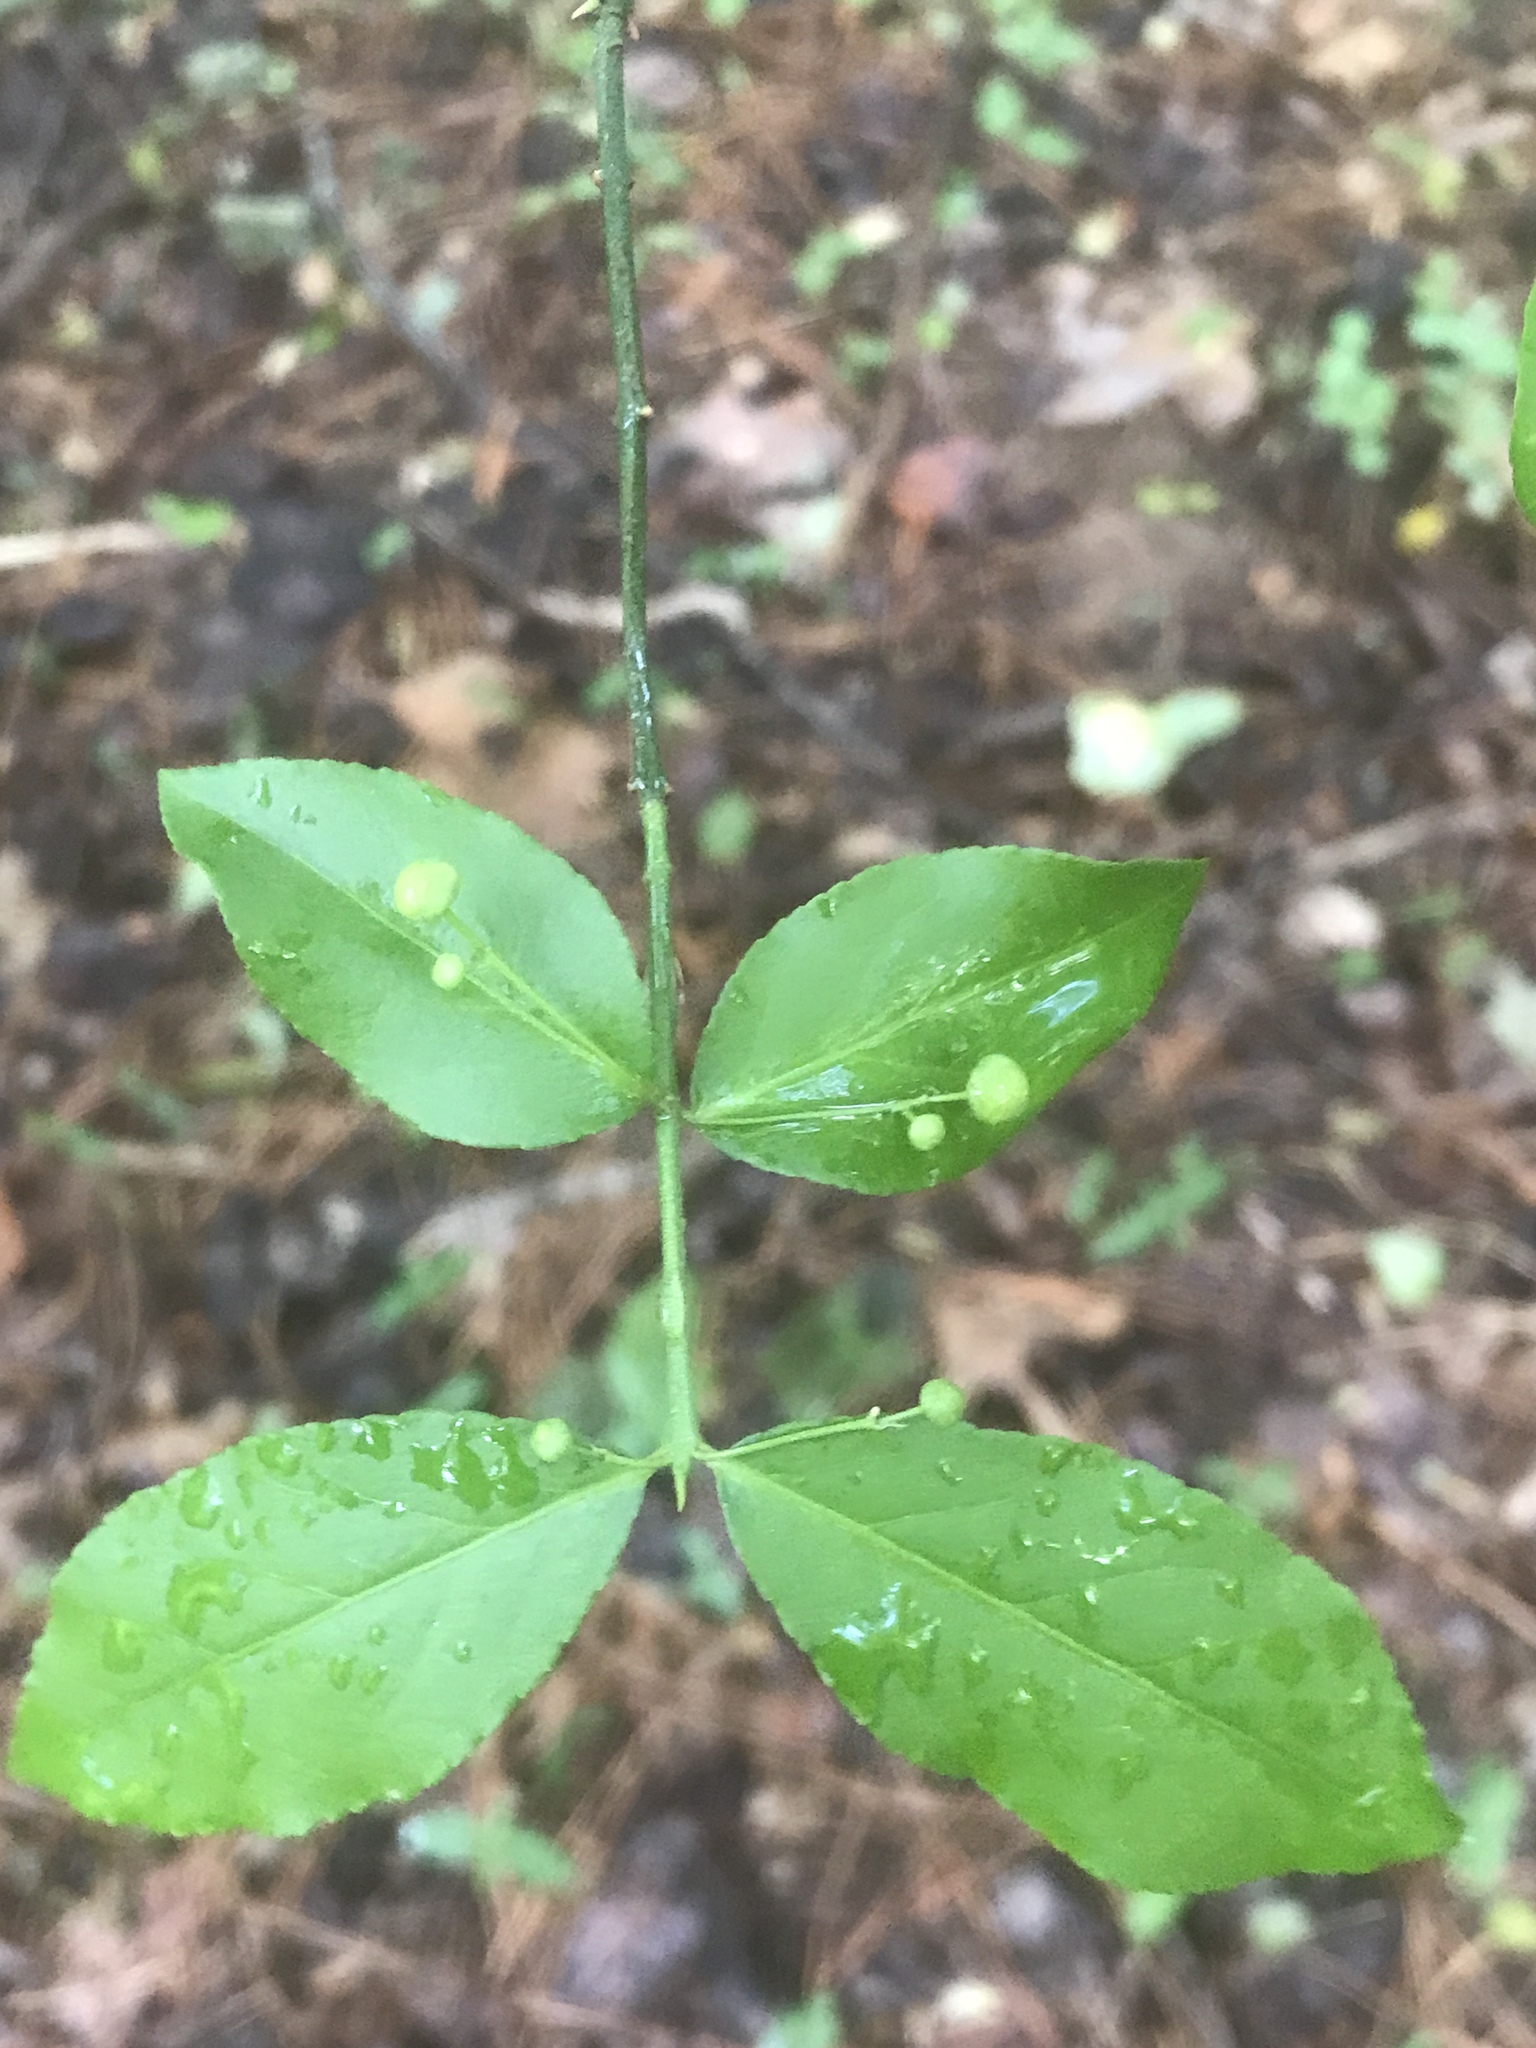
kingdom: Plantae
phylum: Tracheophyta
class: Magnoliopsida
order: Celastrales
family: Celastraceae
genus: Euonymus
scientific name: Euonymus americanus
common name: Bursting-heart
